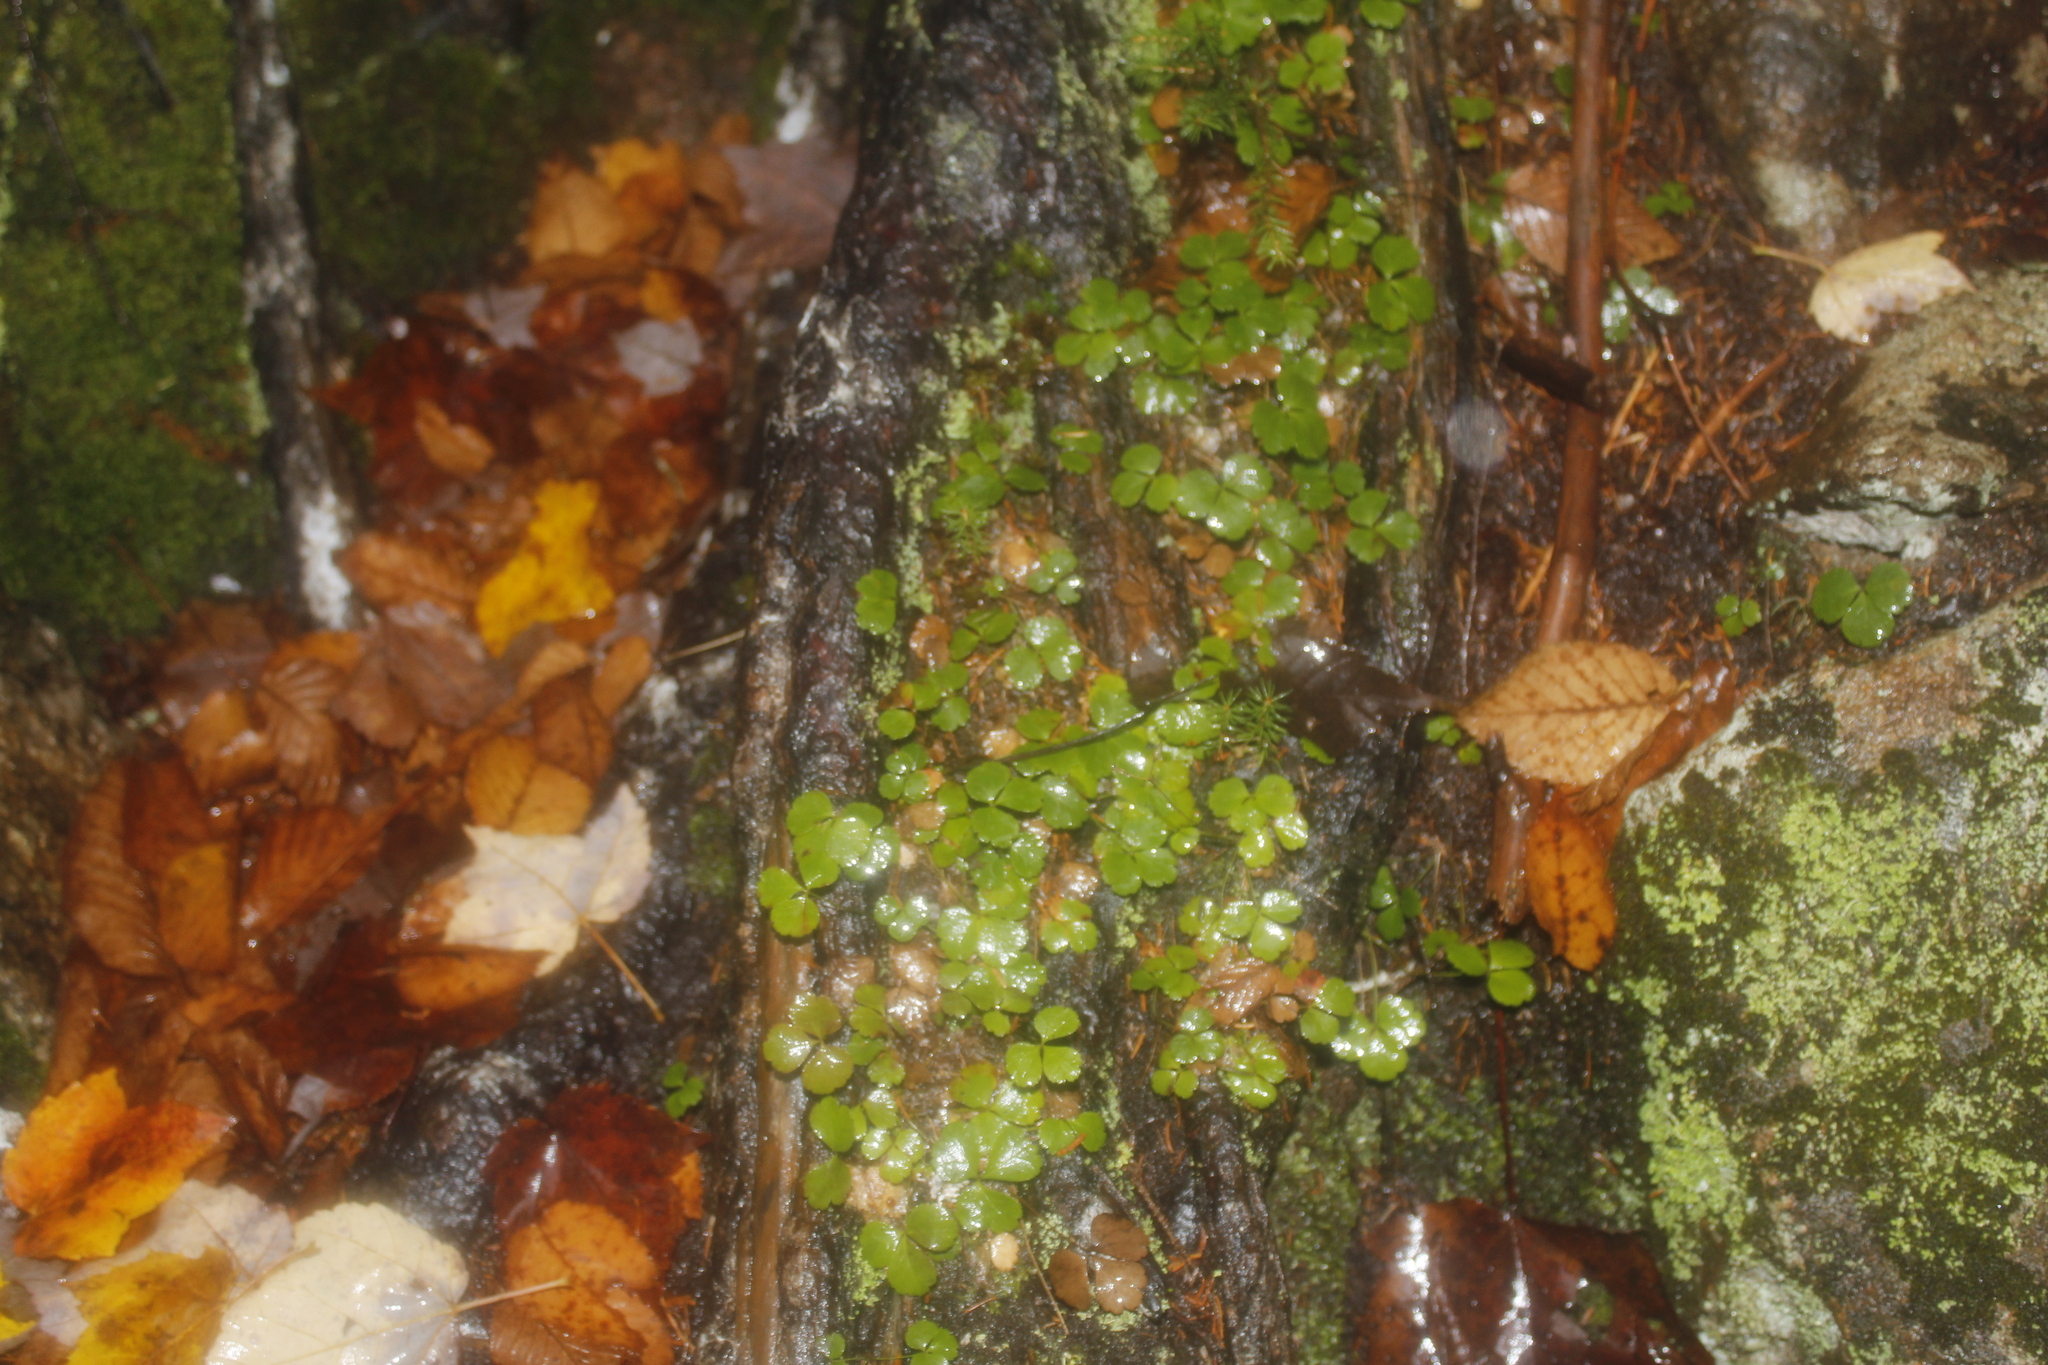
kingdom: Plantae
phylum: Tracheophyta
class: Magnoliopsida
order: Ranunculales
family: Ranunculaceae
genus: Coptis
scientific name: Coptis trifolia
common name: Canker-root
